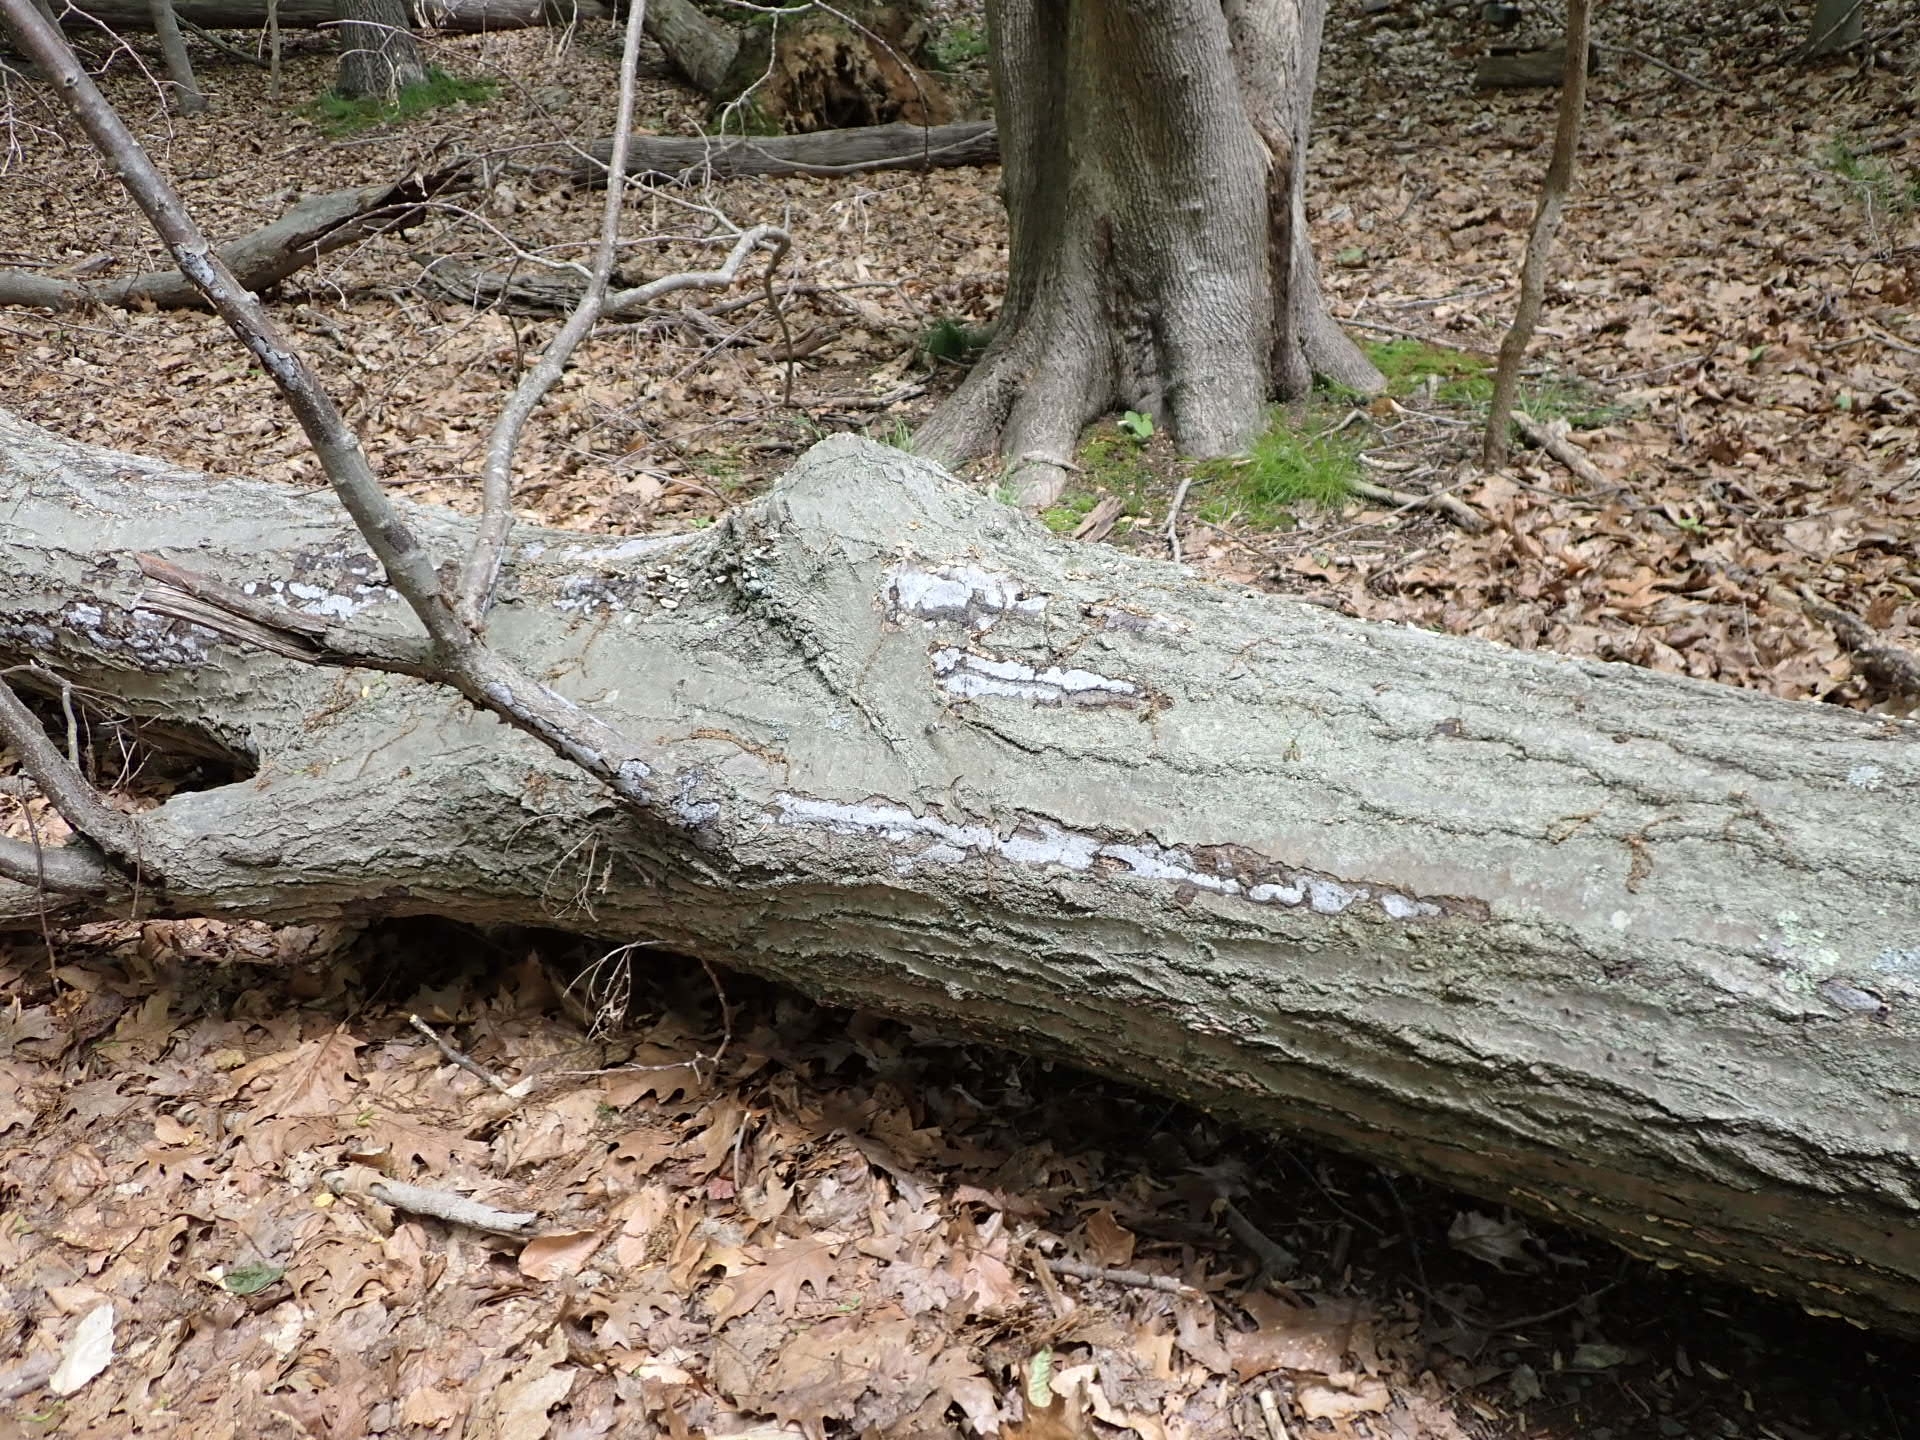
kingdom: Fungi
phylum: Ascomycota
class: Sordariomycetes
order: Xylariales
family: Graphostromataceae
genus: Biscogniauxia
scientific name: Biscogniauxia atropunctata
